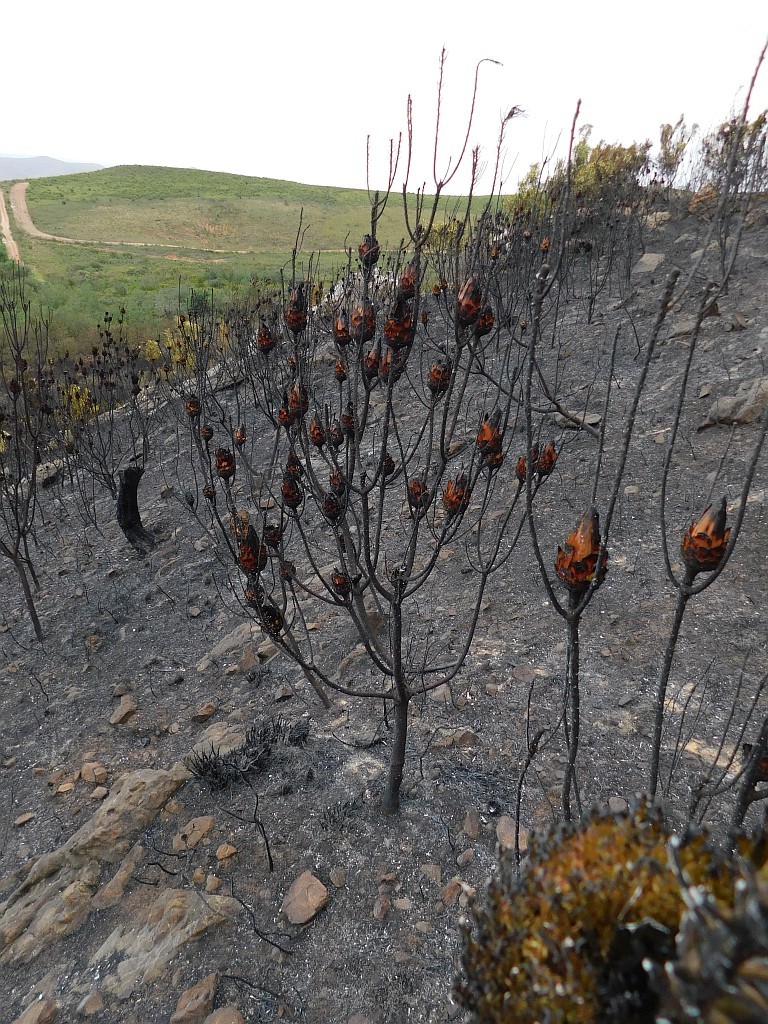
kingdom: Plantae
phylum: Tracheophyta
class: Magnoliopsida
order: Proteales
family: Proteaceae
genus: Protea
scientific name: Protea repens
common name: Sugarbush
